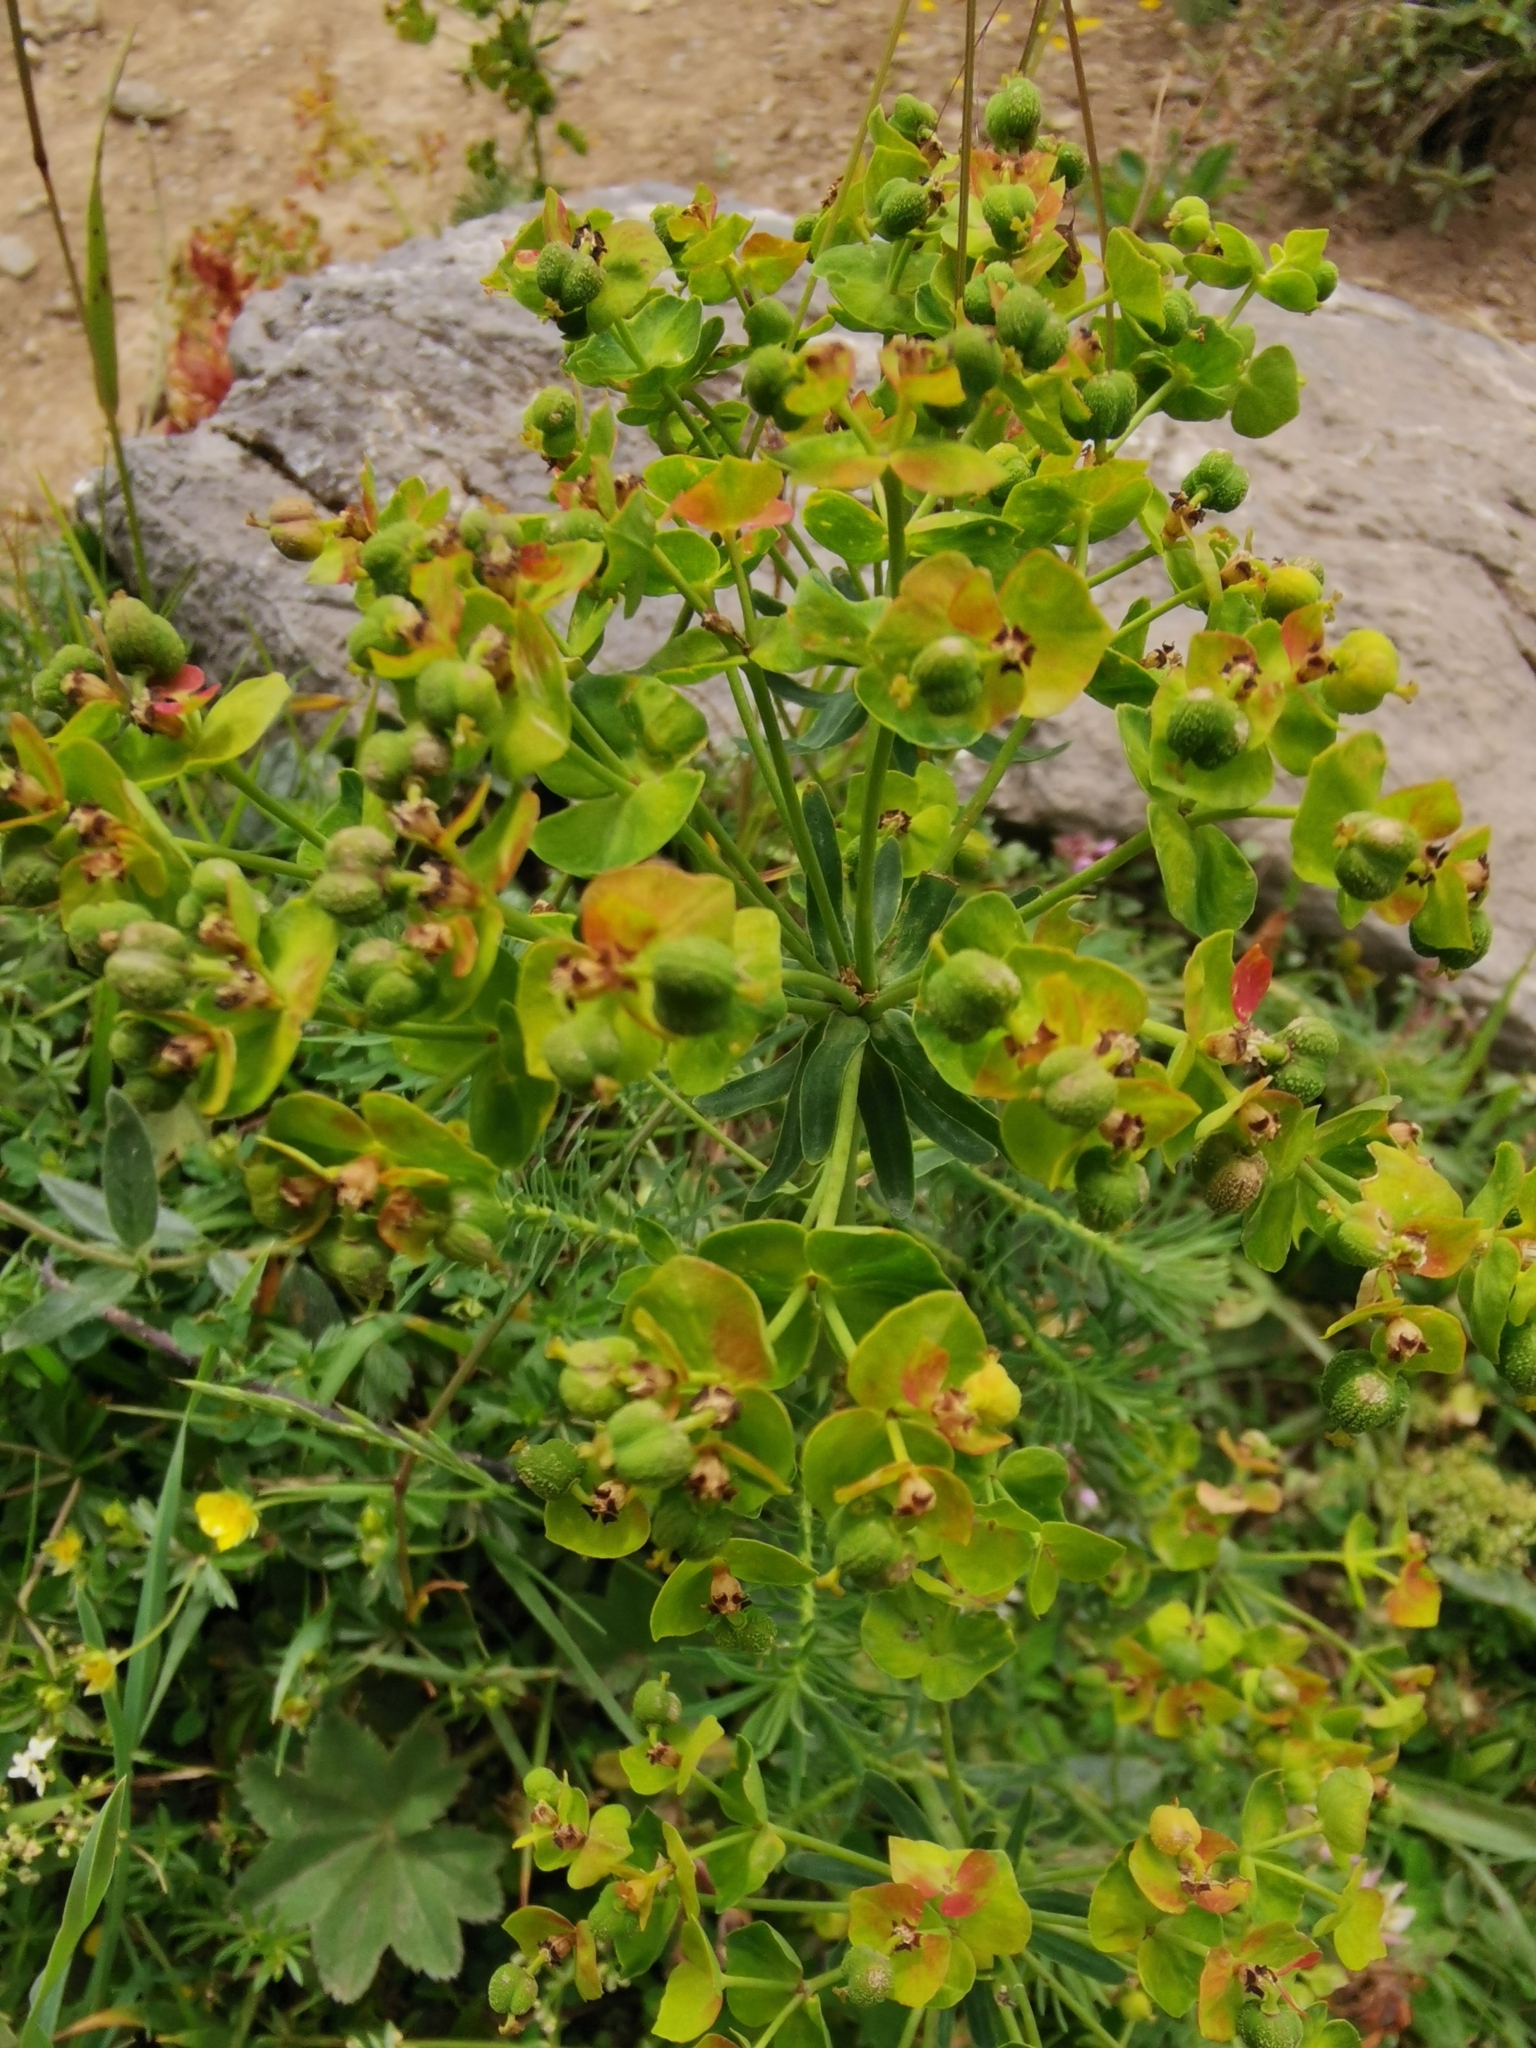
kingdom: Plantae
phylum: Tracheophyta
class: Magnoliopsida
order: Malpighiales
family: Euphorbiaceae
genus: Euphorbia
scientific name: Euphorbia cyparissias
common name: Cypress spurge
